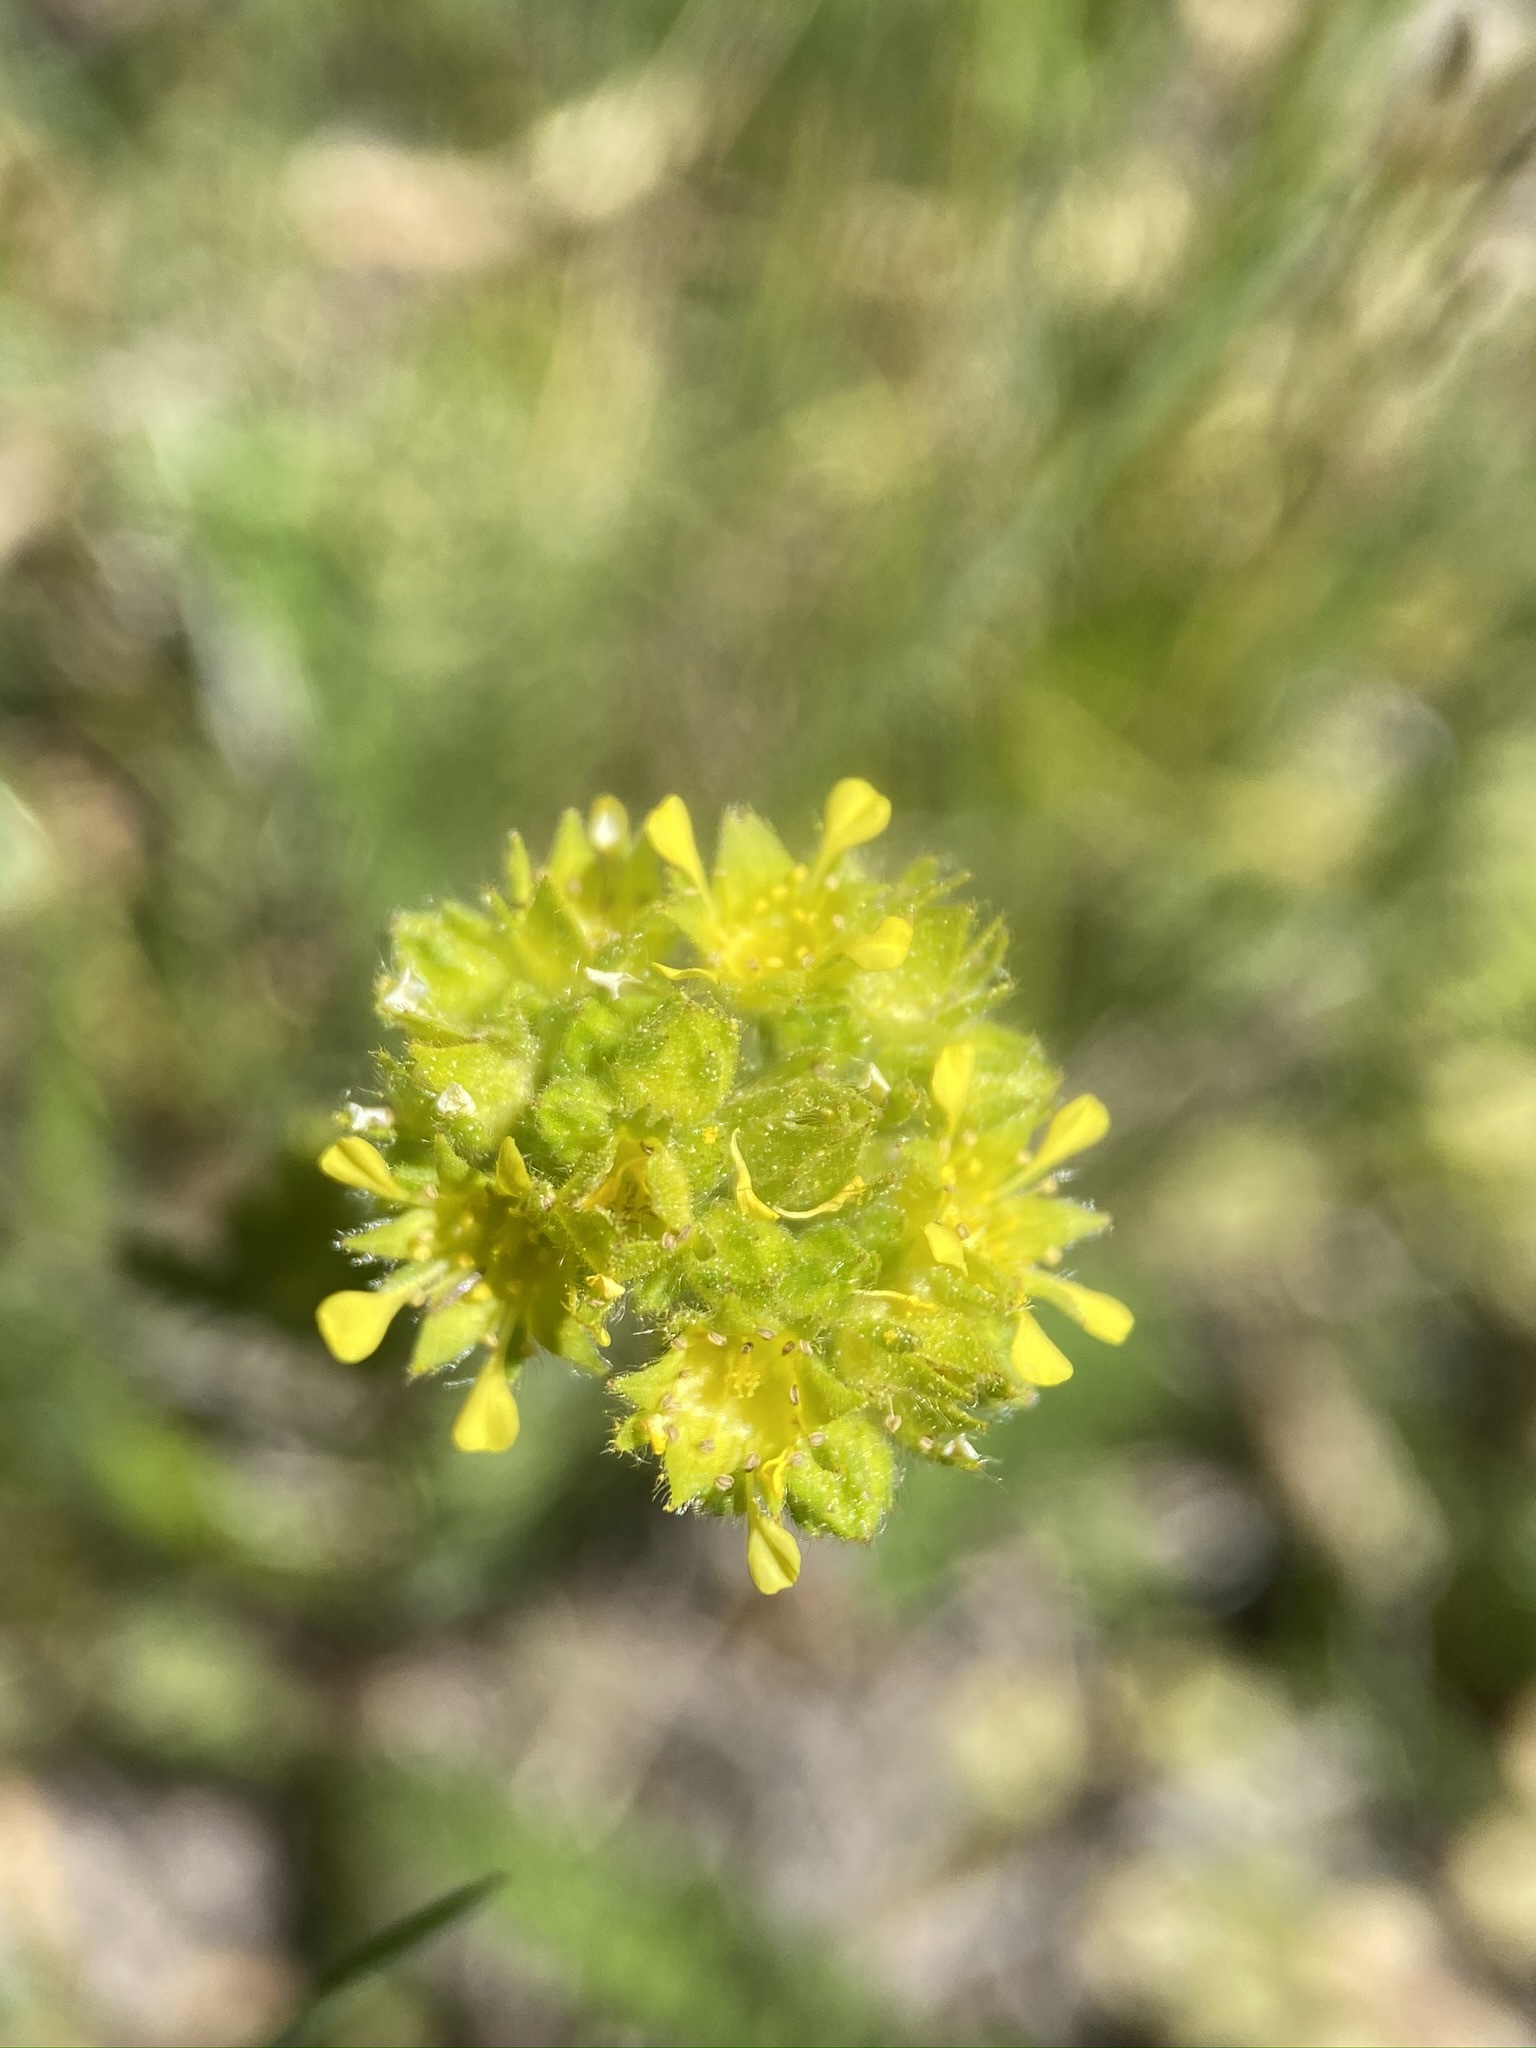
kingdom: Plantae
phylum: Tracheophyta
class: Magnoliopsida
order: Rosales
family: Rosaceae
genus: Potentilla
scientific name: Potentilla campestris
